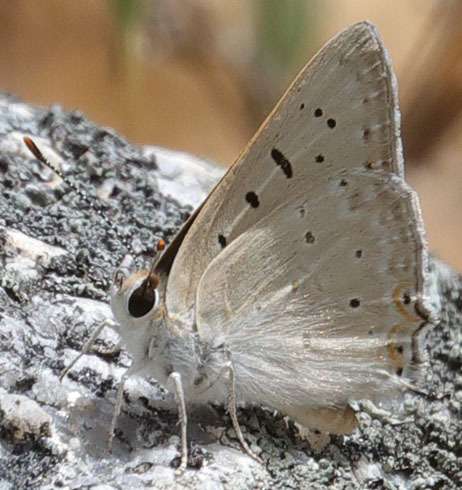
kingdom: Animalia
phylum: Arthropoda
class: Insecta
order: Lepidoptera
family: Lycaenidae
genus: Tharsalea
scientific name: Tharsalea xanthoides
